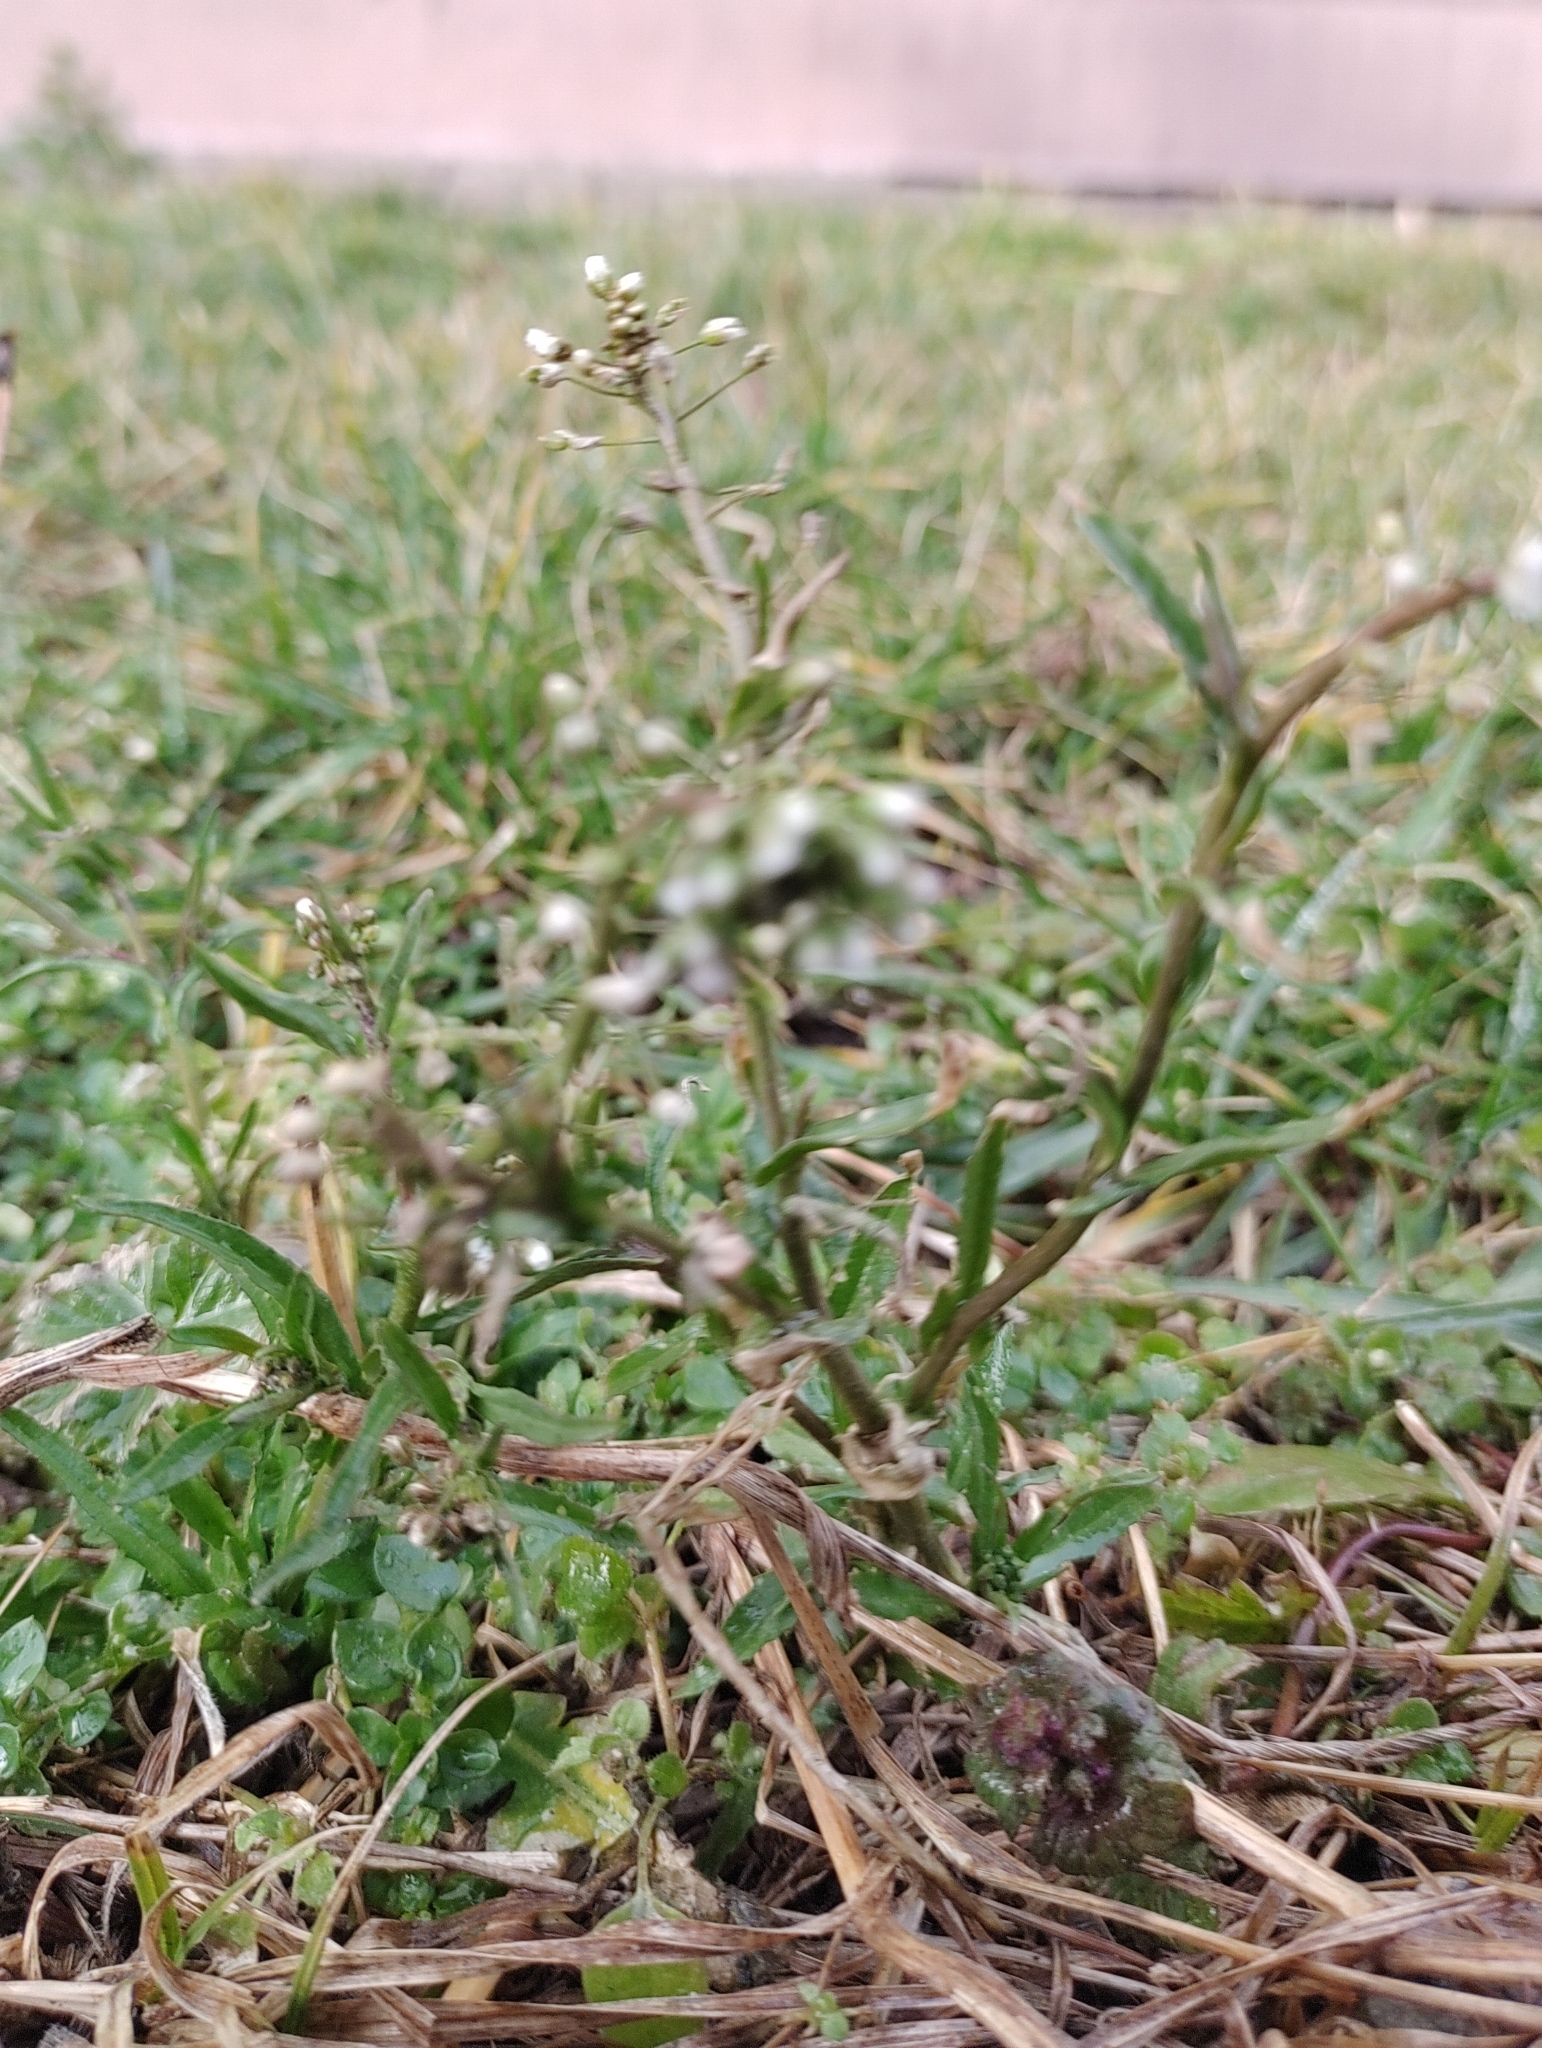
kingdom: Plantae
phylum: Tracheophyta
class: Magnoliopsida
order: Brassicales
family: Brassicaceae
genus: Capsella
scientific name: Capsella bursa-pastoris
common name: Shepherd's purse
